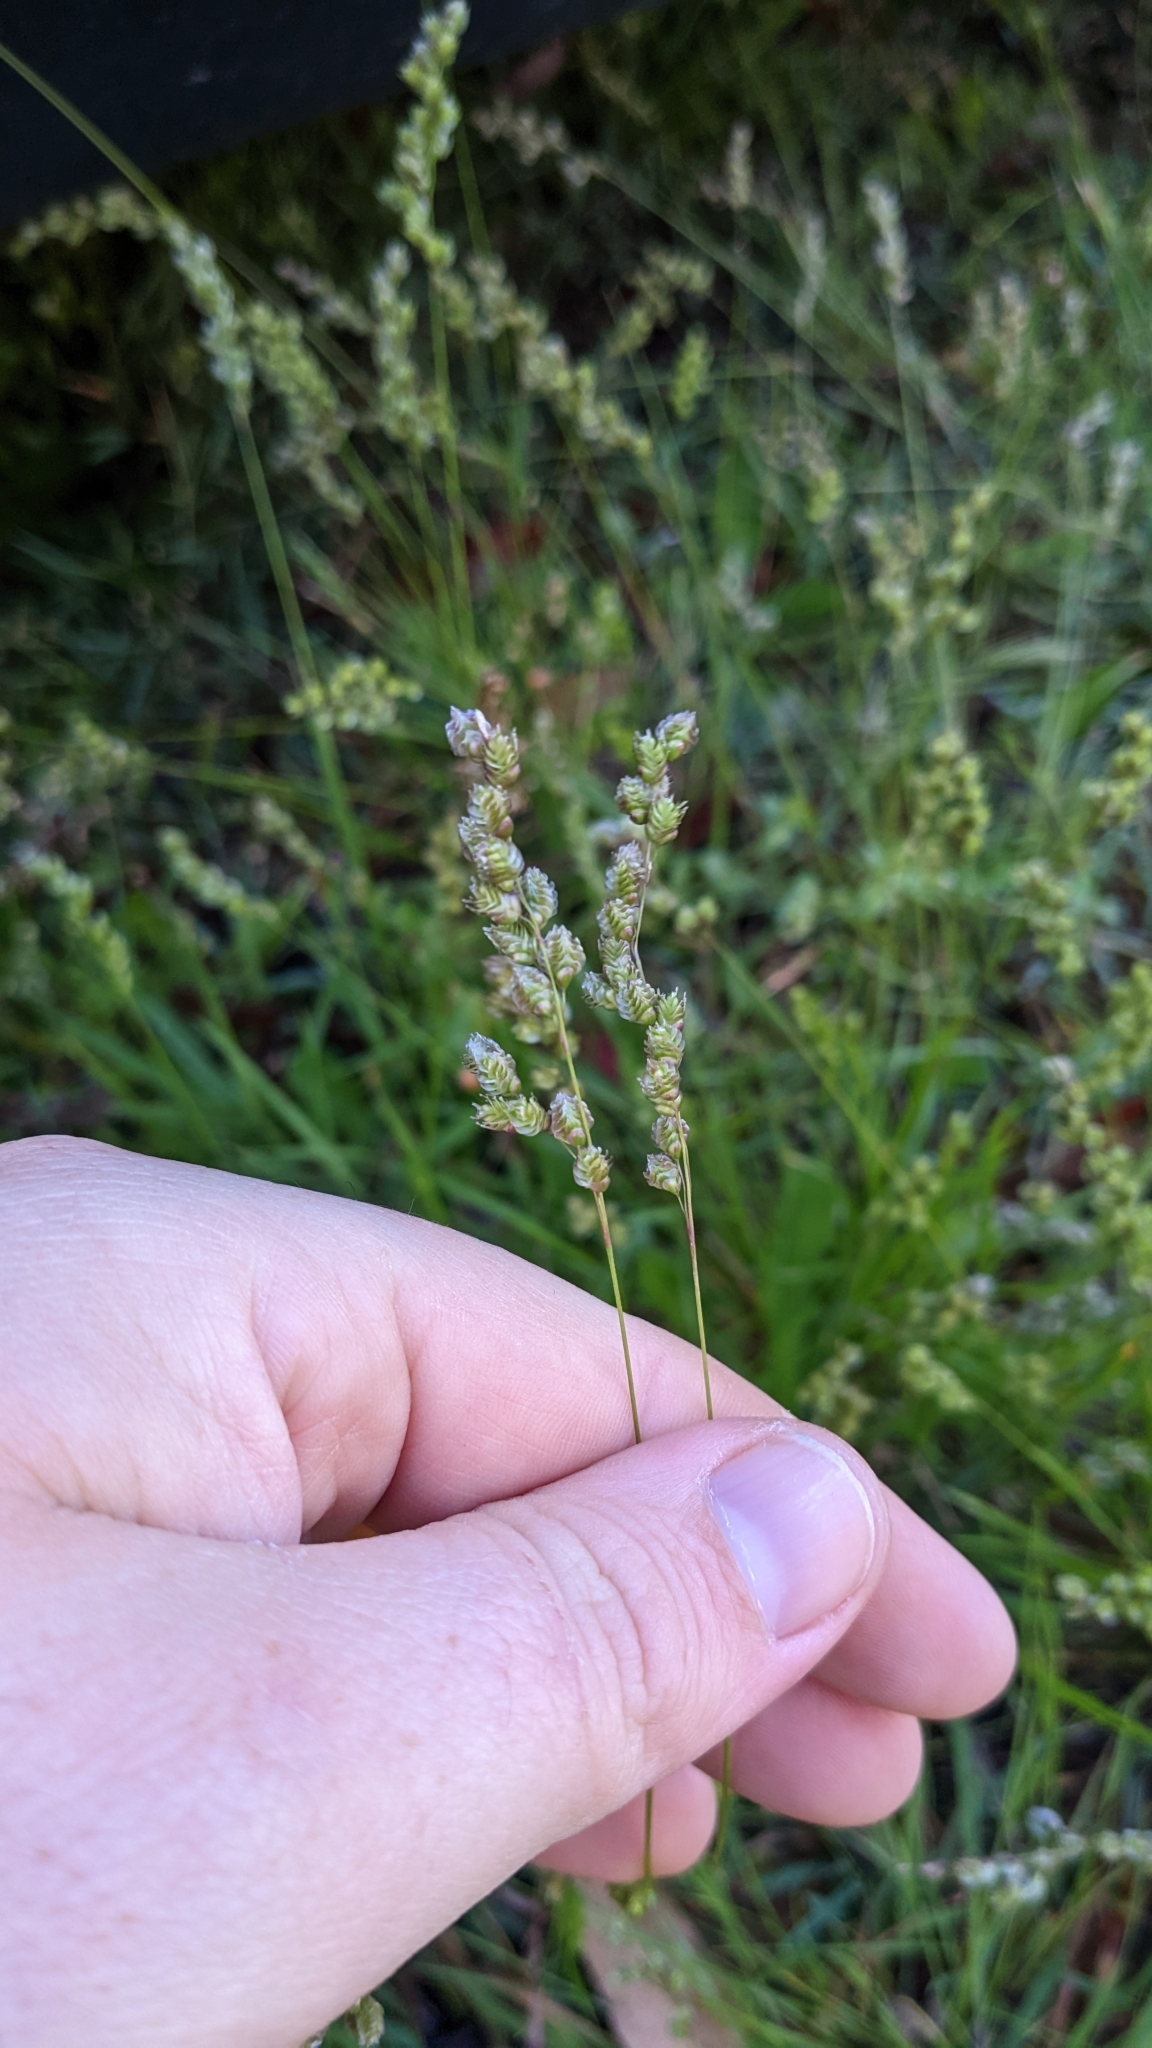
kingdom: Plantae
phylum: Tracheophyta
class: Liliopsida
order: Poales
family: Poaceae
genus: Chascolytrum
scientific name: Chascolytrum subaristatum
